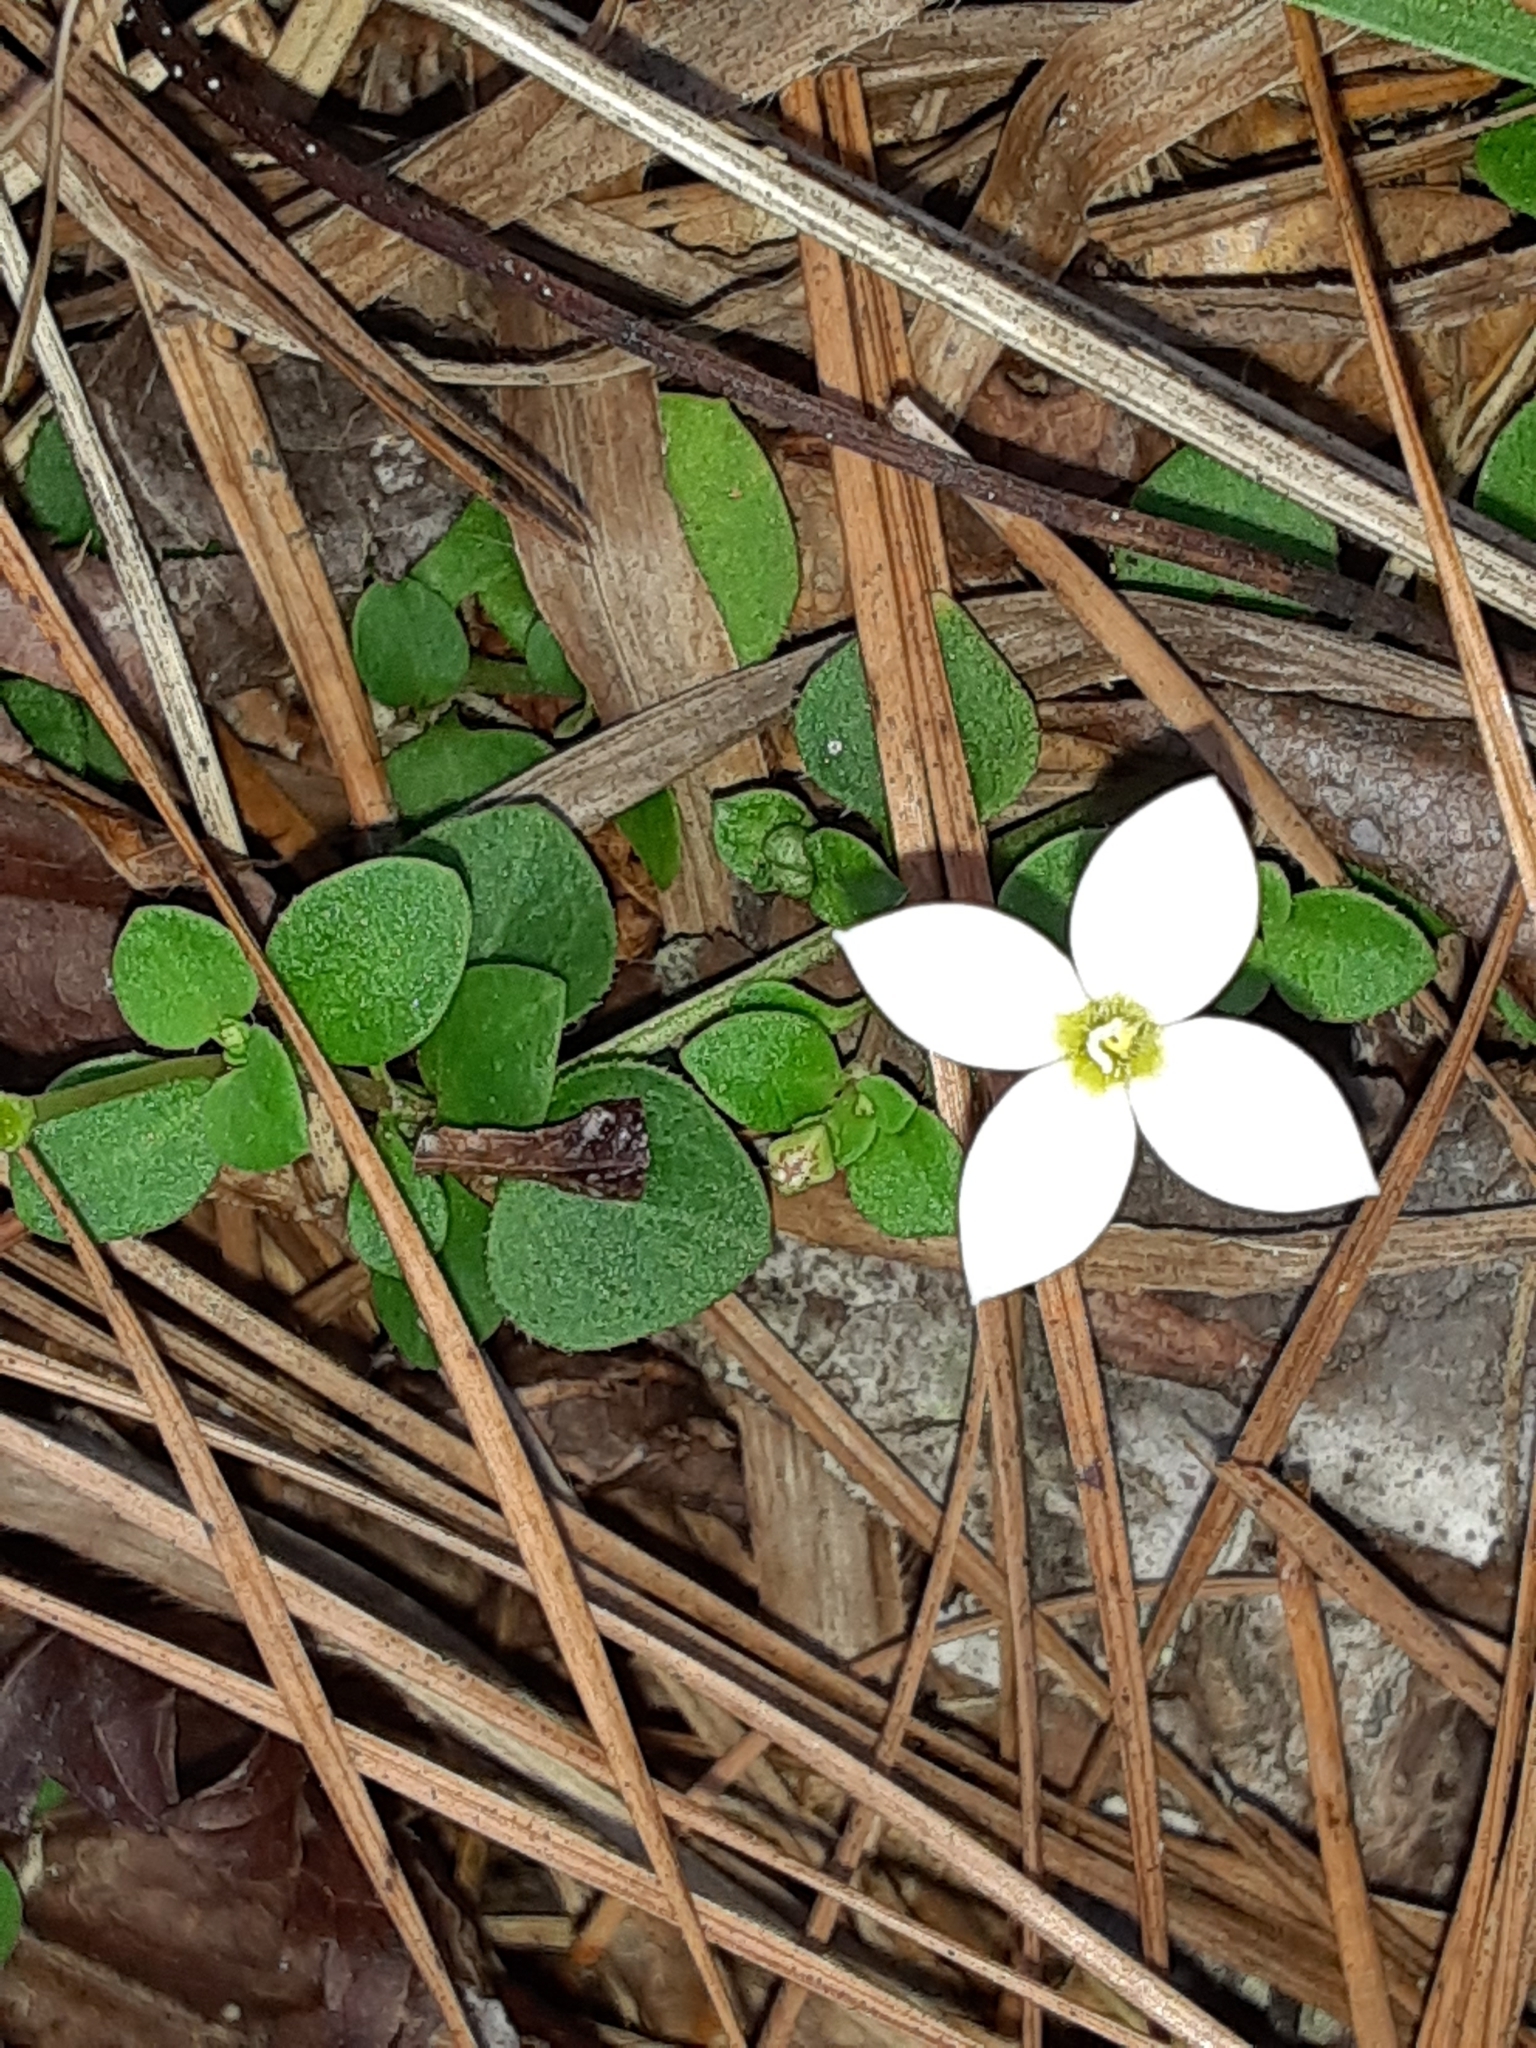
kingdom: Plantae
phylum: Tracheophyta
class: Magnoliopsida
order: Gentianales
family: Rubiaceae
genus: Houstonia
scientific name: Houstonia procumbens
